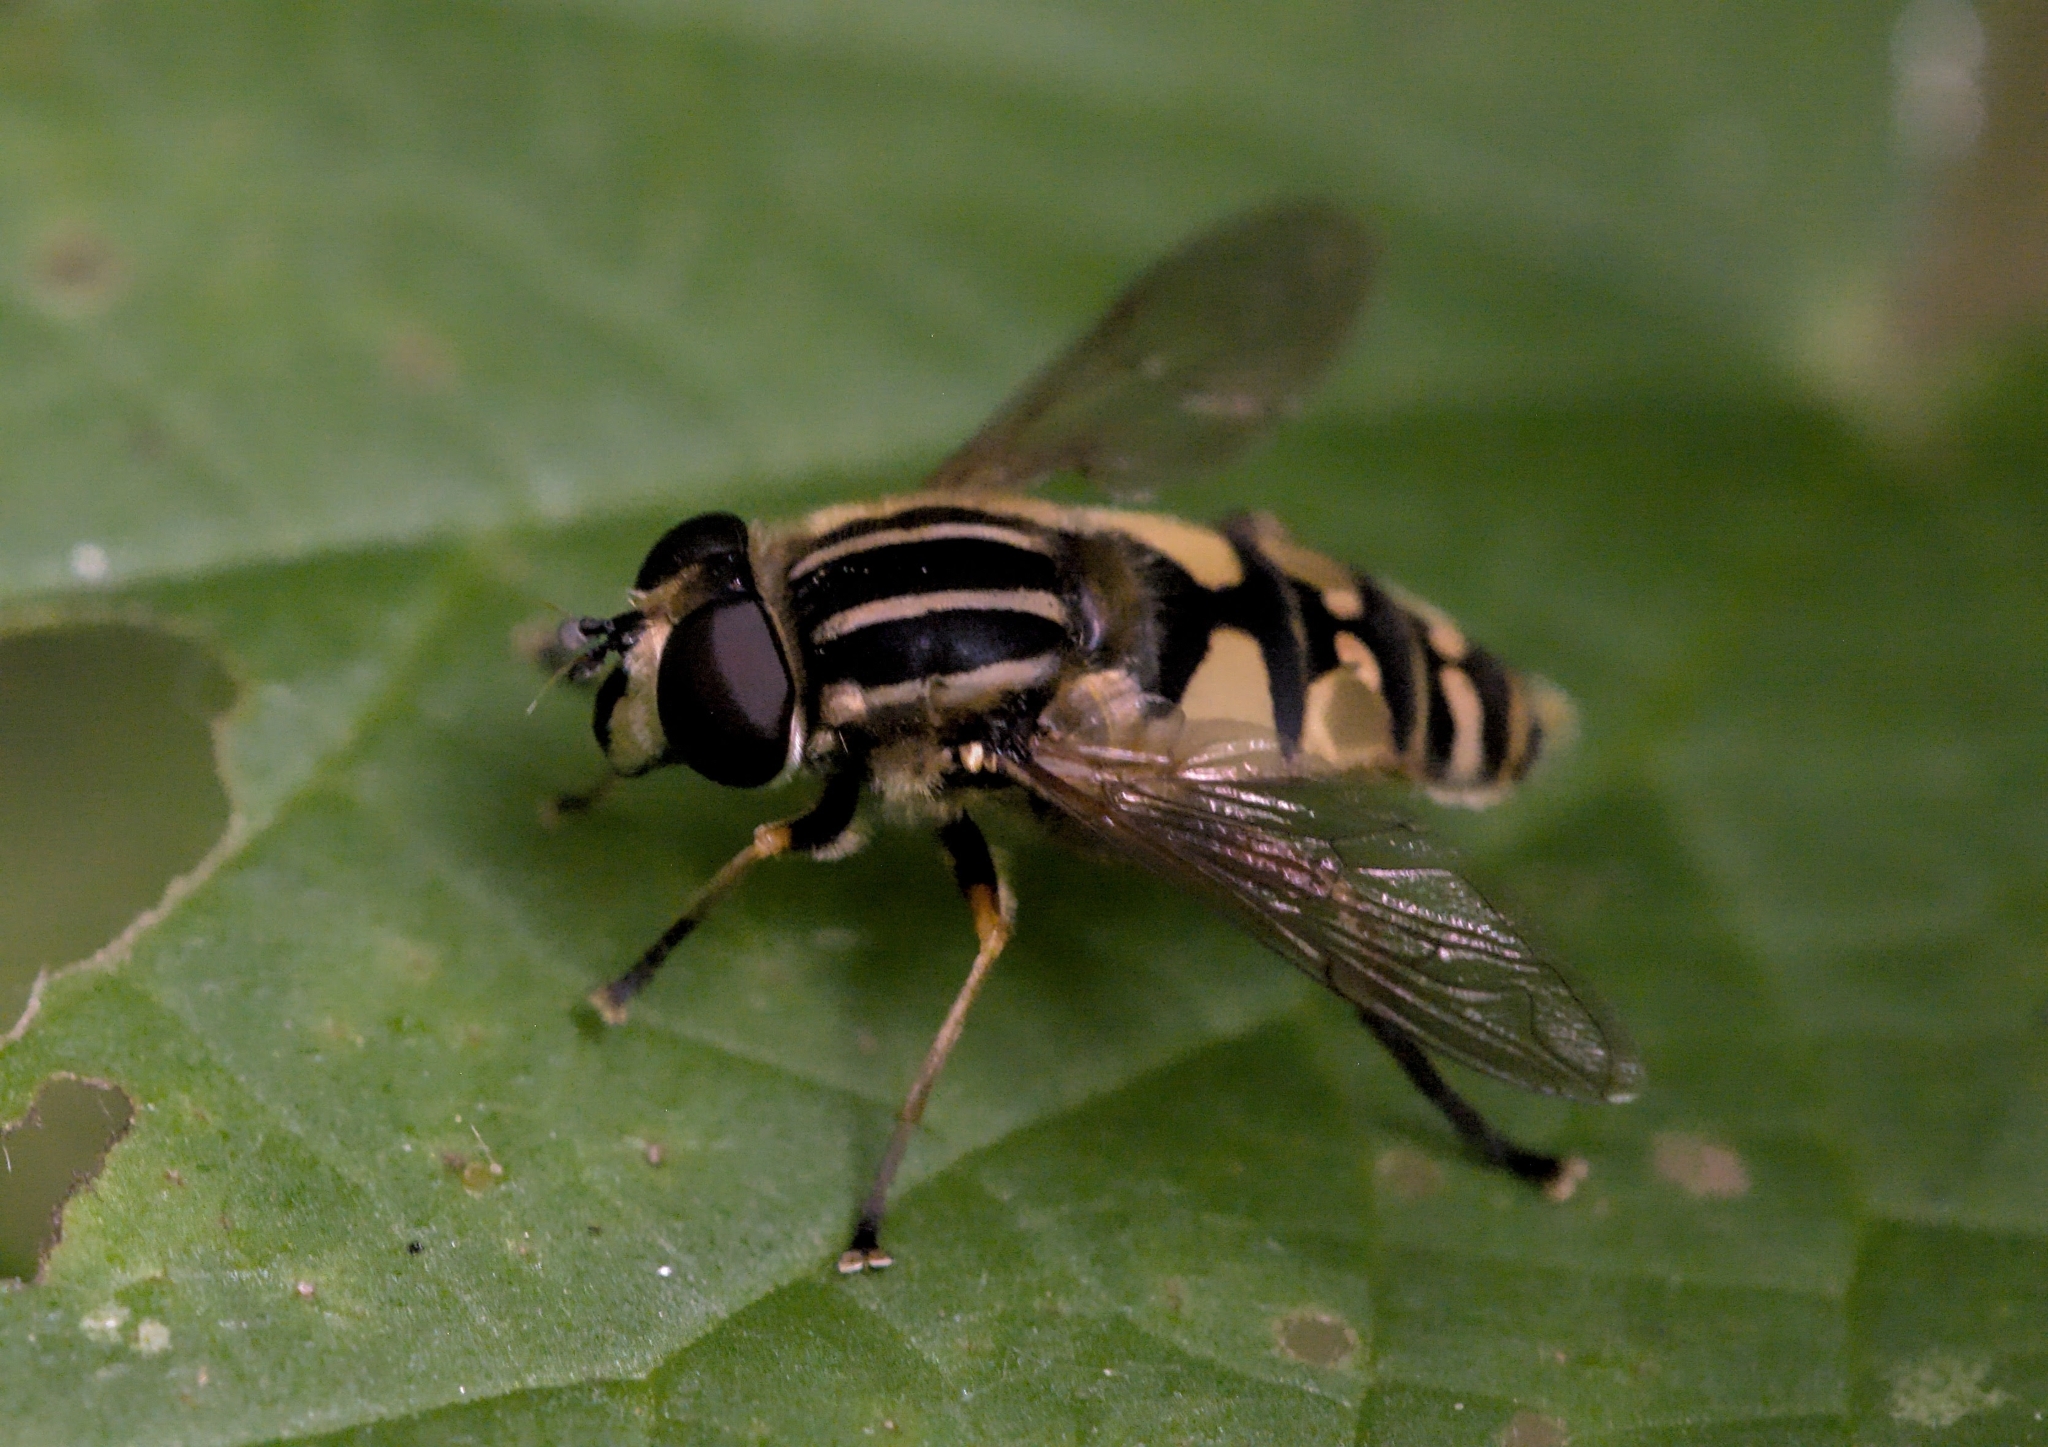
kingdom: Animalia
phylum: Arthropoda
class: Insecta
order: Diptera
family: Syrphidae
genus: Helophilus
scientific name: Helophilus pendulus
